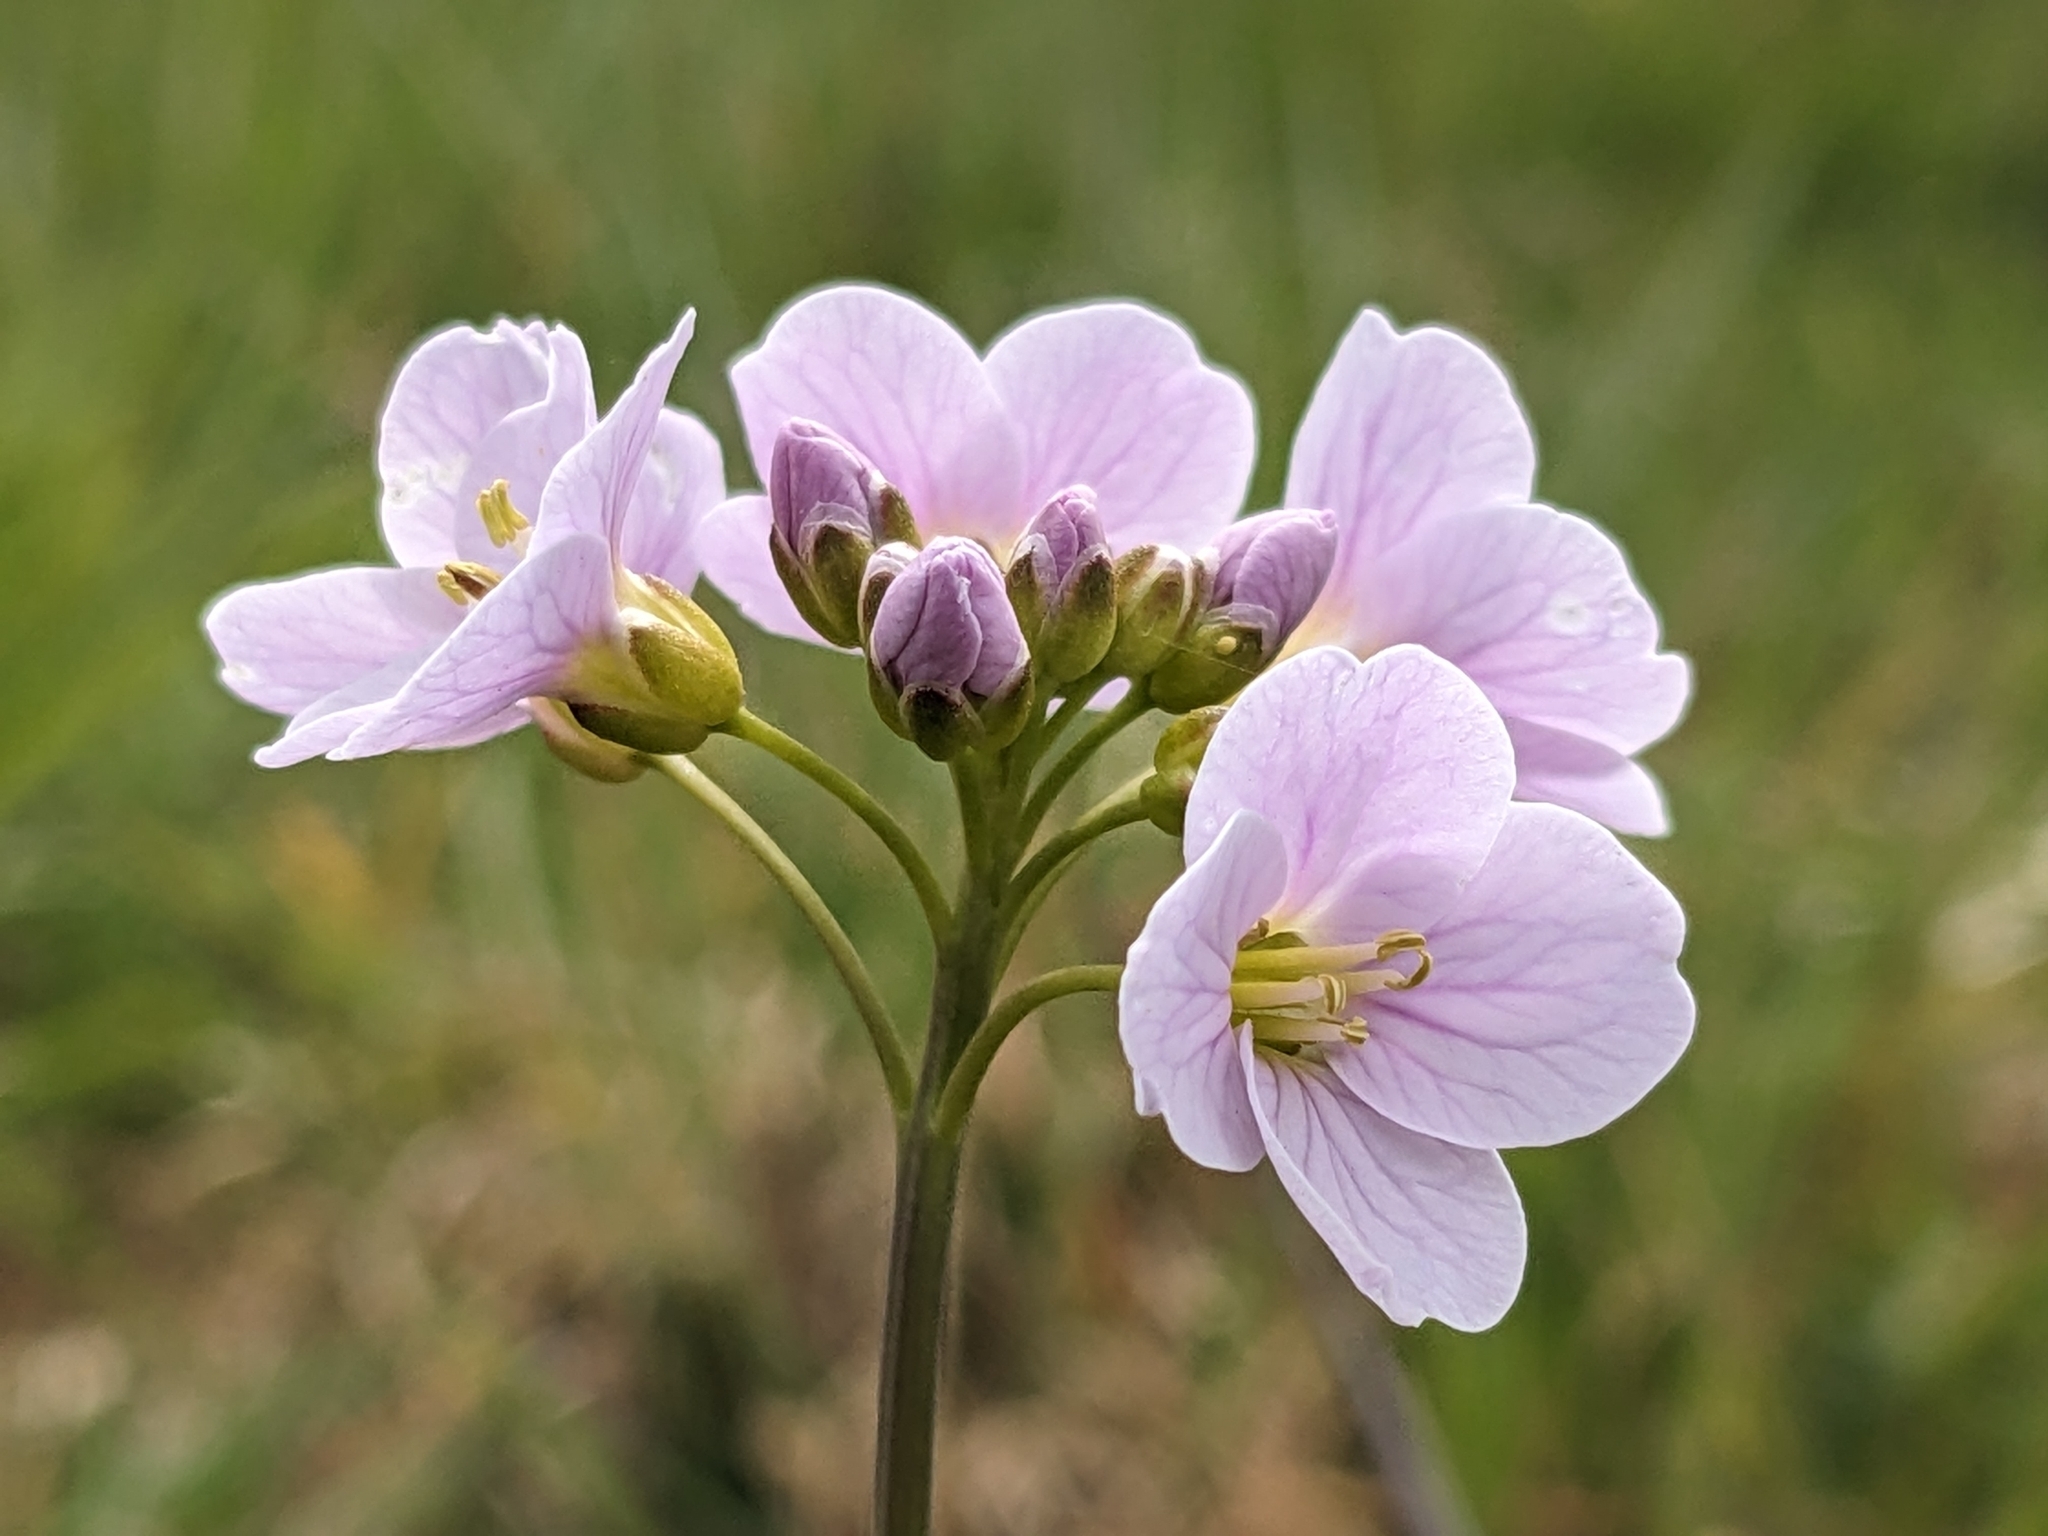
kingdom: Plantae
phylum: Tracheophyta
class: Magnoliopsida
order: Brassicales
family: Brassicaceae
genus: Cardamine
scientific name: Cardamine pratensis
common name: Cuckoo flower
